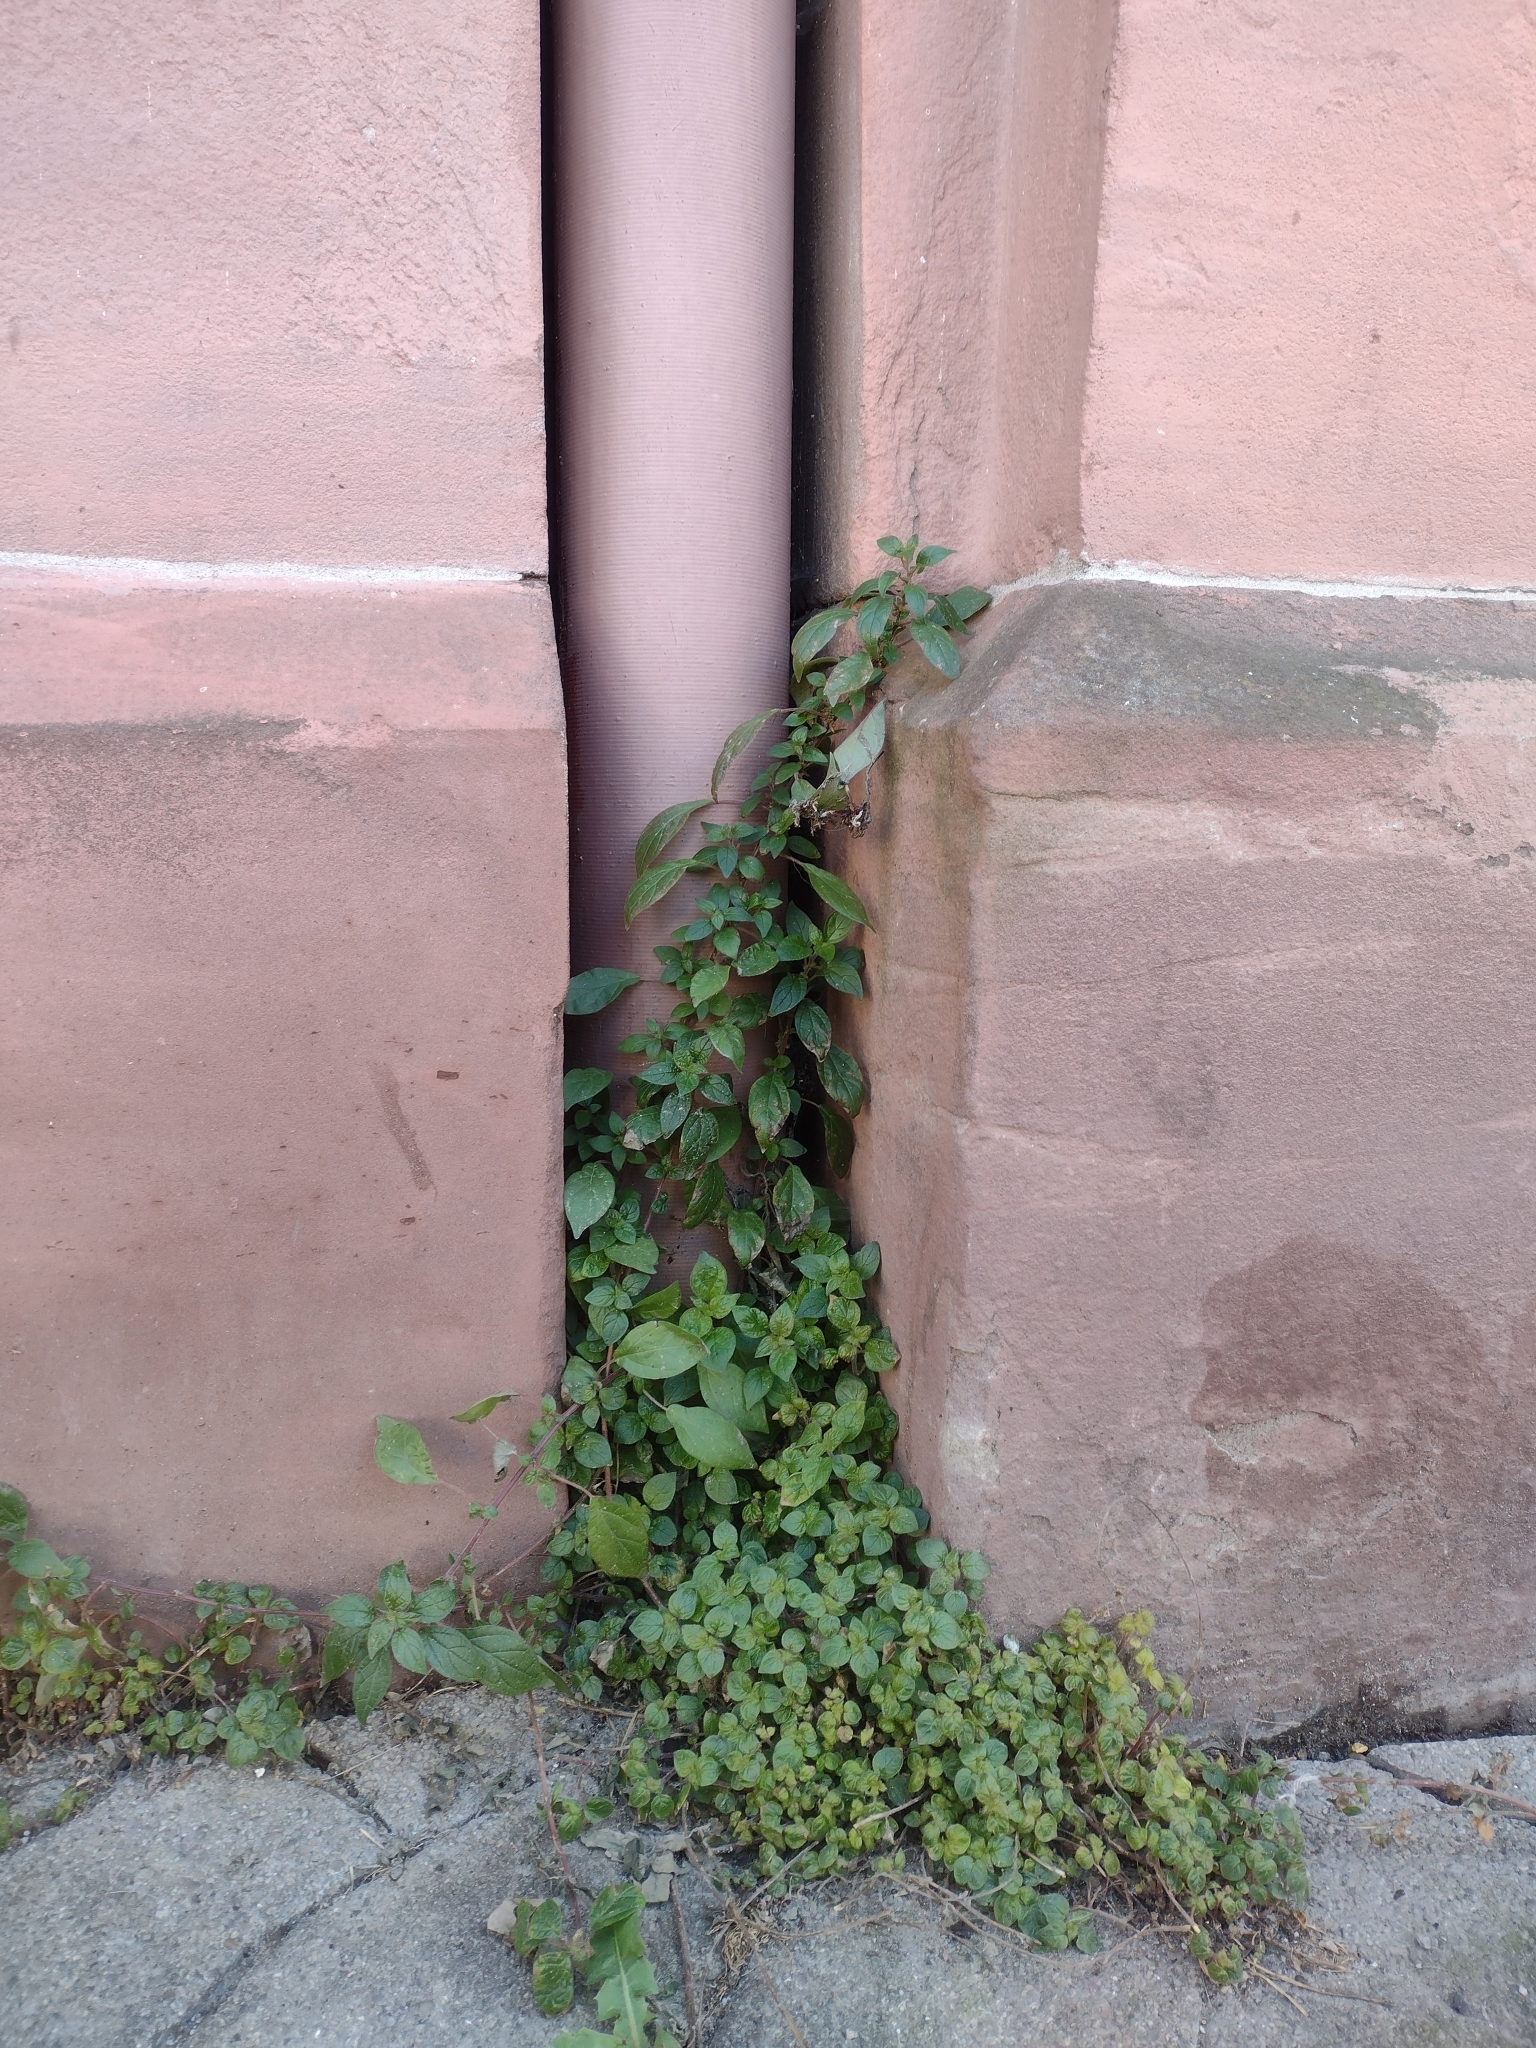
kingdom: Plantae
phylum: Tracheophyta
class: Magnoliopsida
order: Rosales
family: Urticaceae
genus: Parietaria
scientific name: Parietaria judaica
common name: Pellitory-of-the-wall
